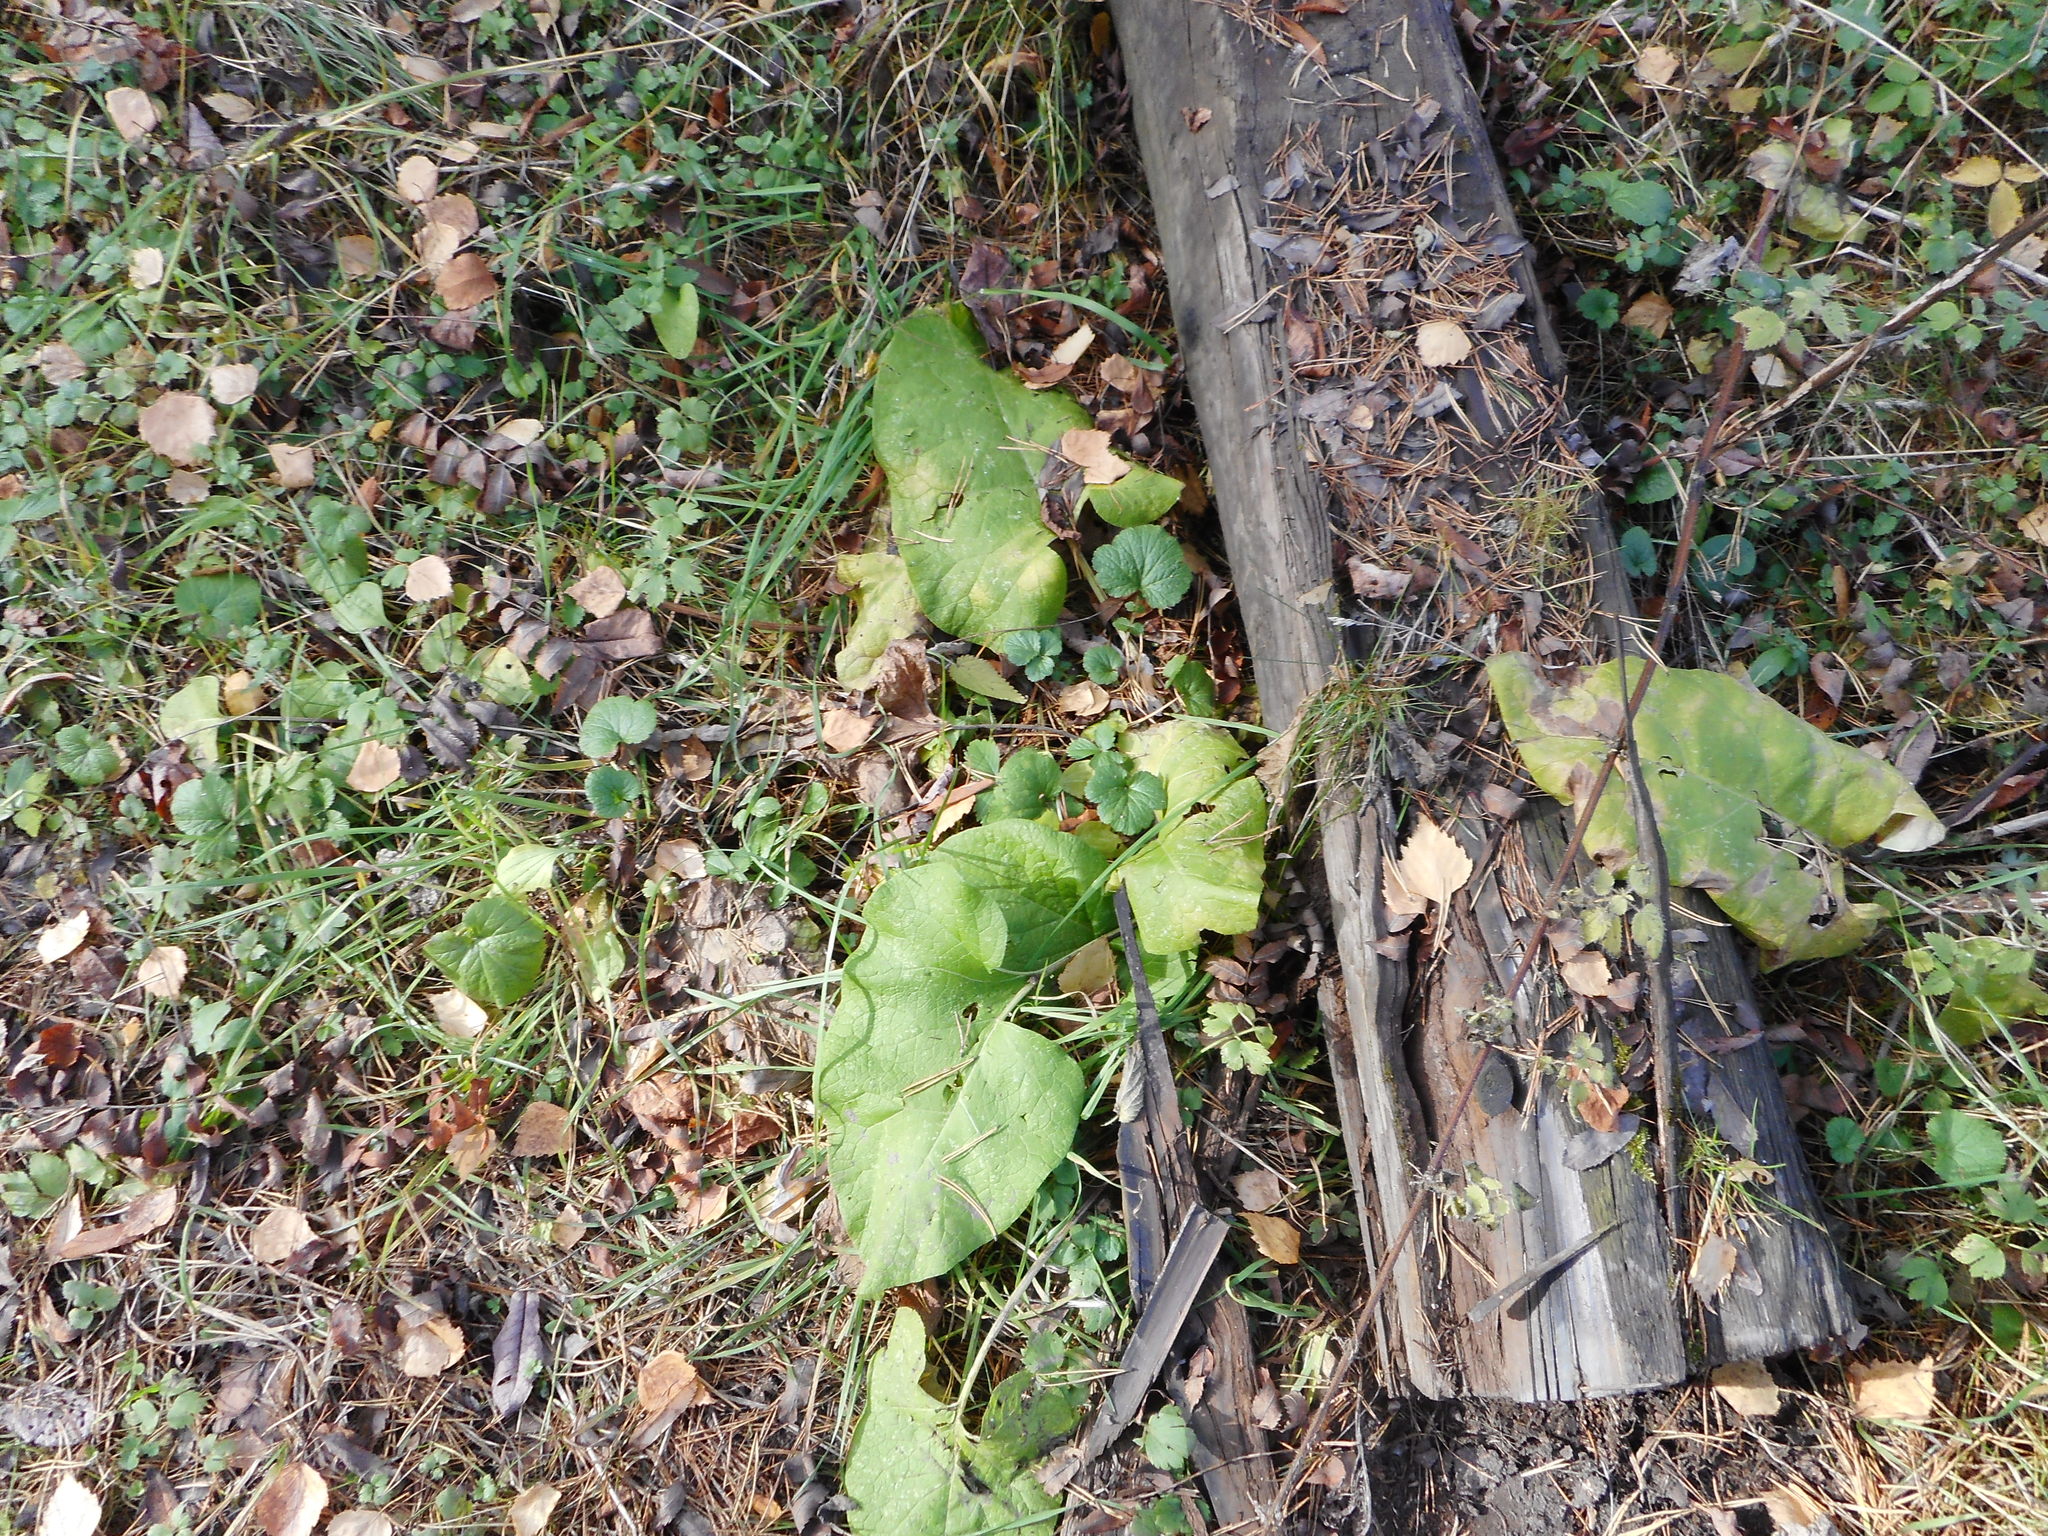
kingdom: Plantae
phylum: Tracheophyta
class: Magnoliopsida
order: Asterales
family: Asteraceae
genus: Arctium
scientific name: Arctium
